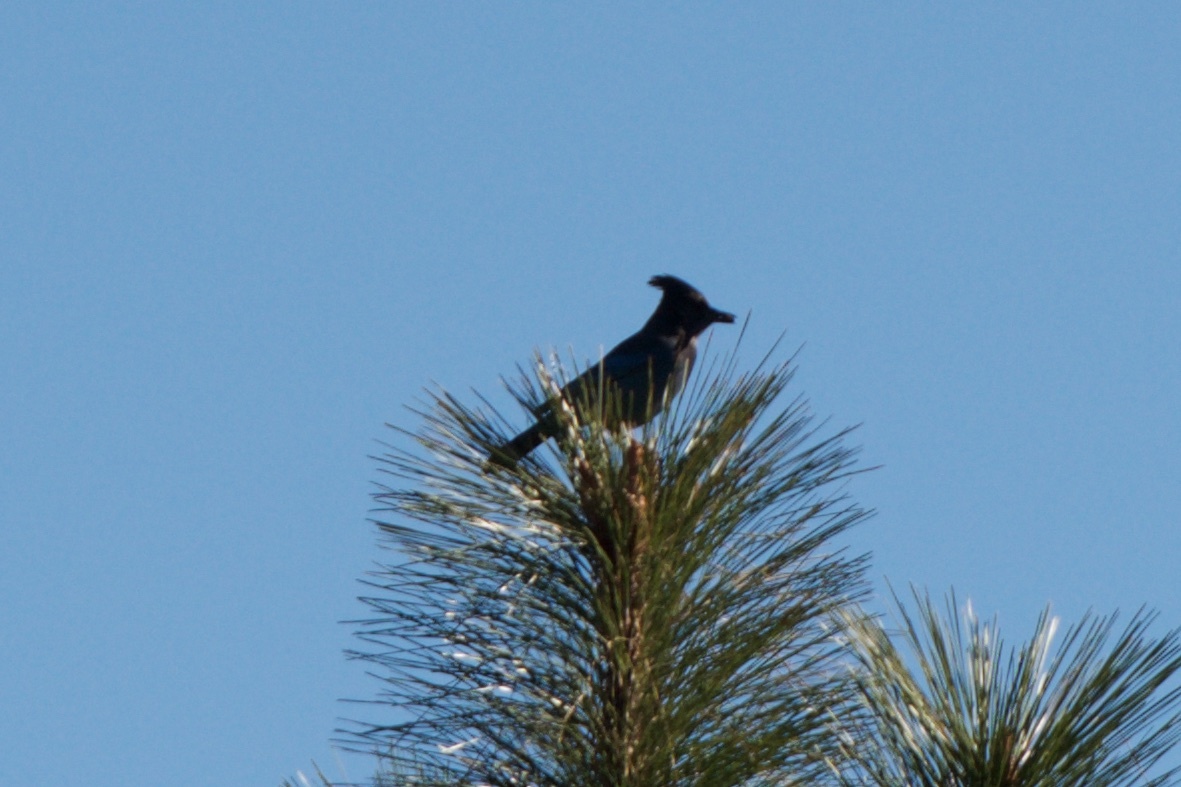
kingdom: Animalia
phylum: Chordata
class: Aves
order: Passeriformes
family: Corvidae
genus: Cyanocitta
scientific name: Cyanocitta stelleri
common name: Steller's jay
